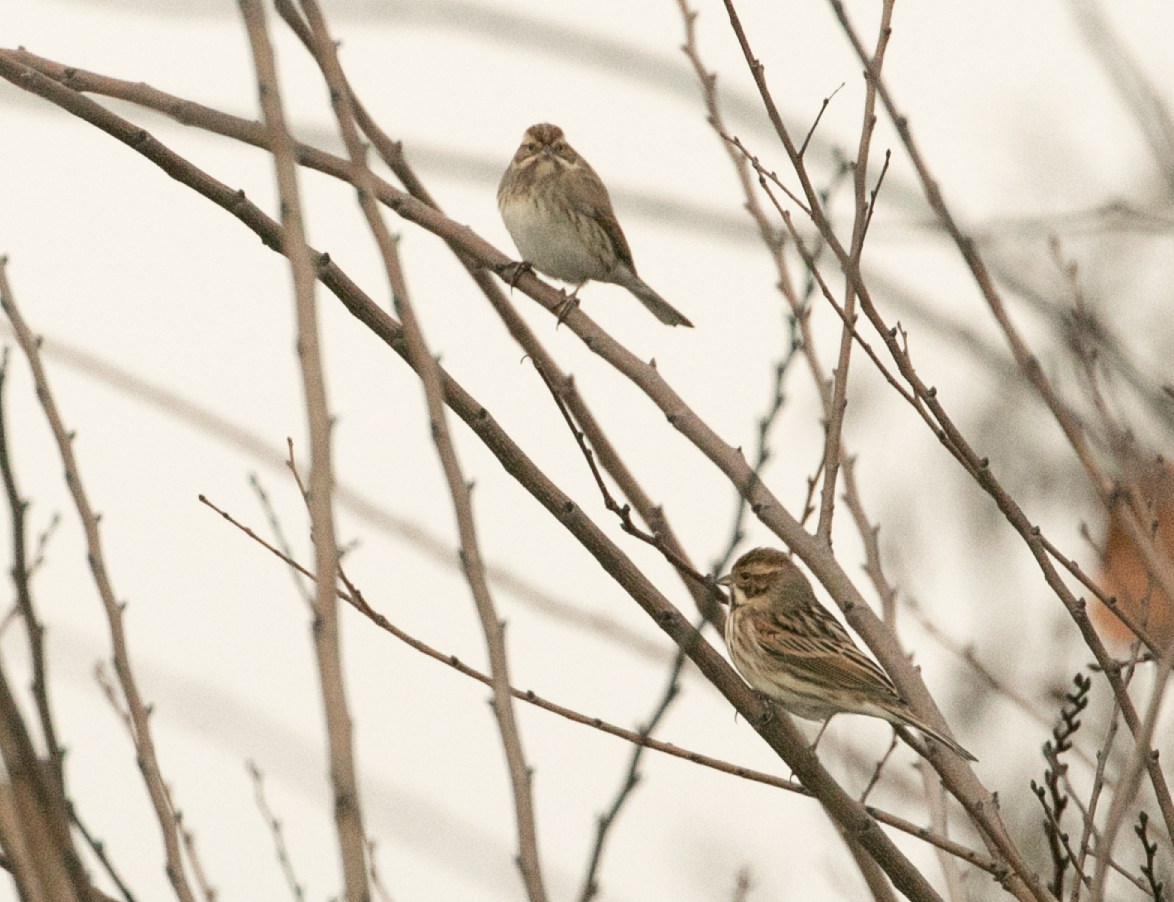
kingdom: Animalia
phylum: Chordata
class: Aves
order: Passeriformes
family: Emberizidae
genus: Emberiza
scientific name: Emberiza schoeniclus
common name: Reed bunting
